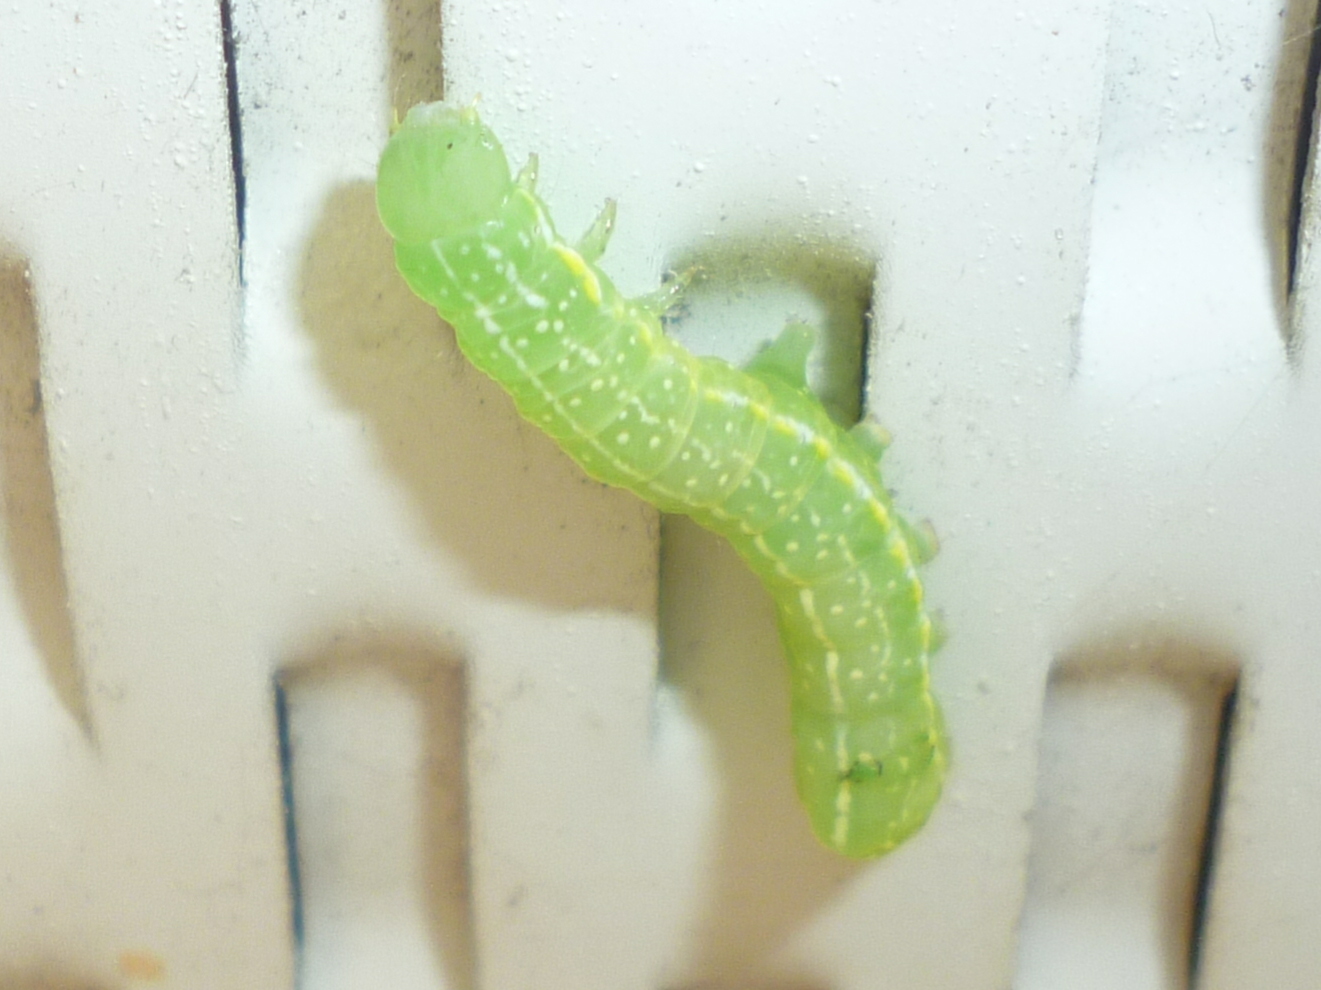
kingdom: Animalia
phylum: Arthropoda
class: Insecta
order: Lepidoptera
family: Noctuidae
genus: Amphipyra
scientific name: Amphipyra pyramidoides
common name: American copper underwing
